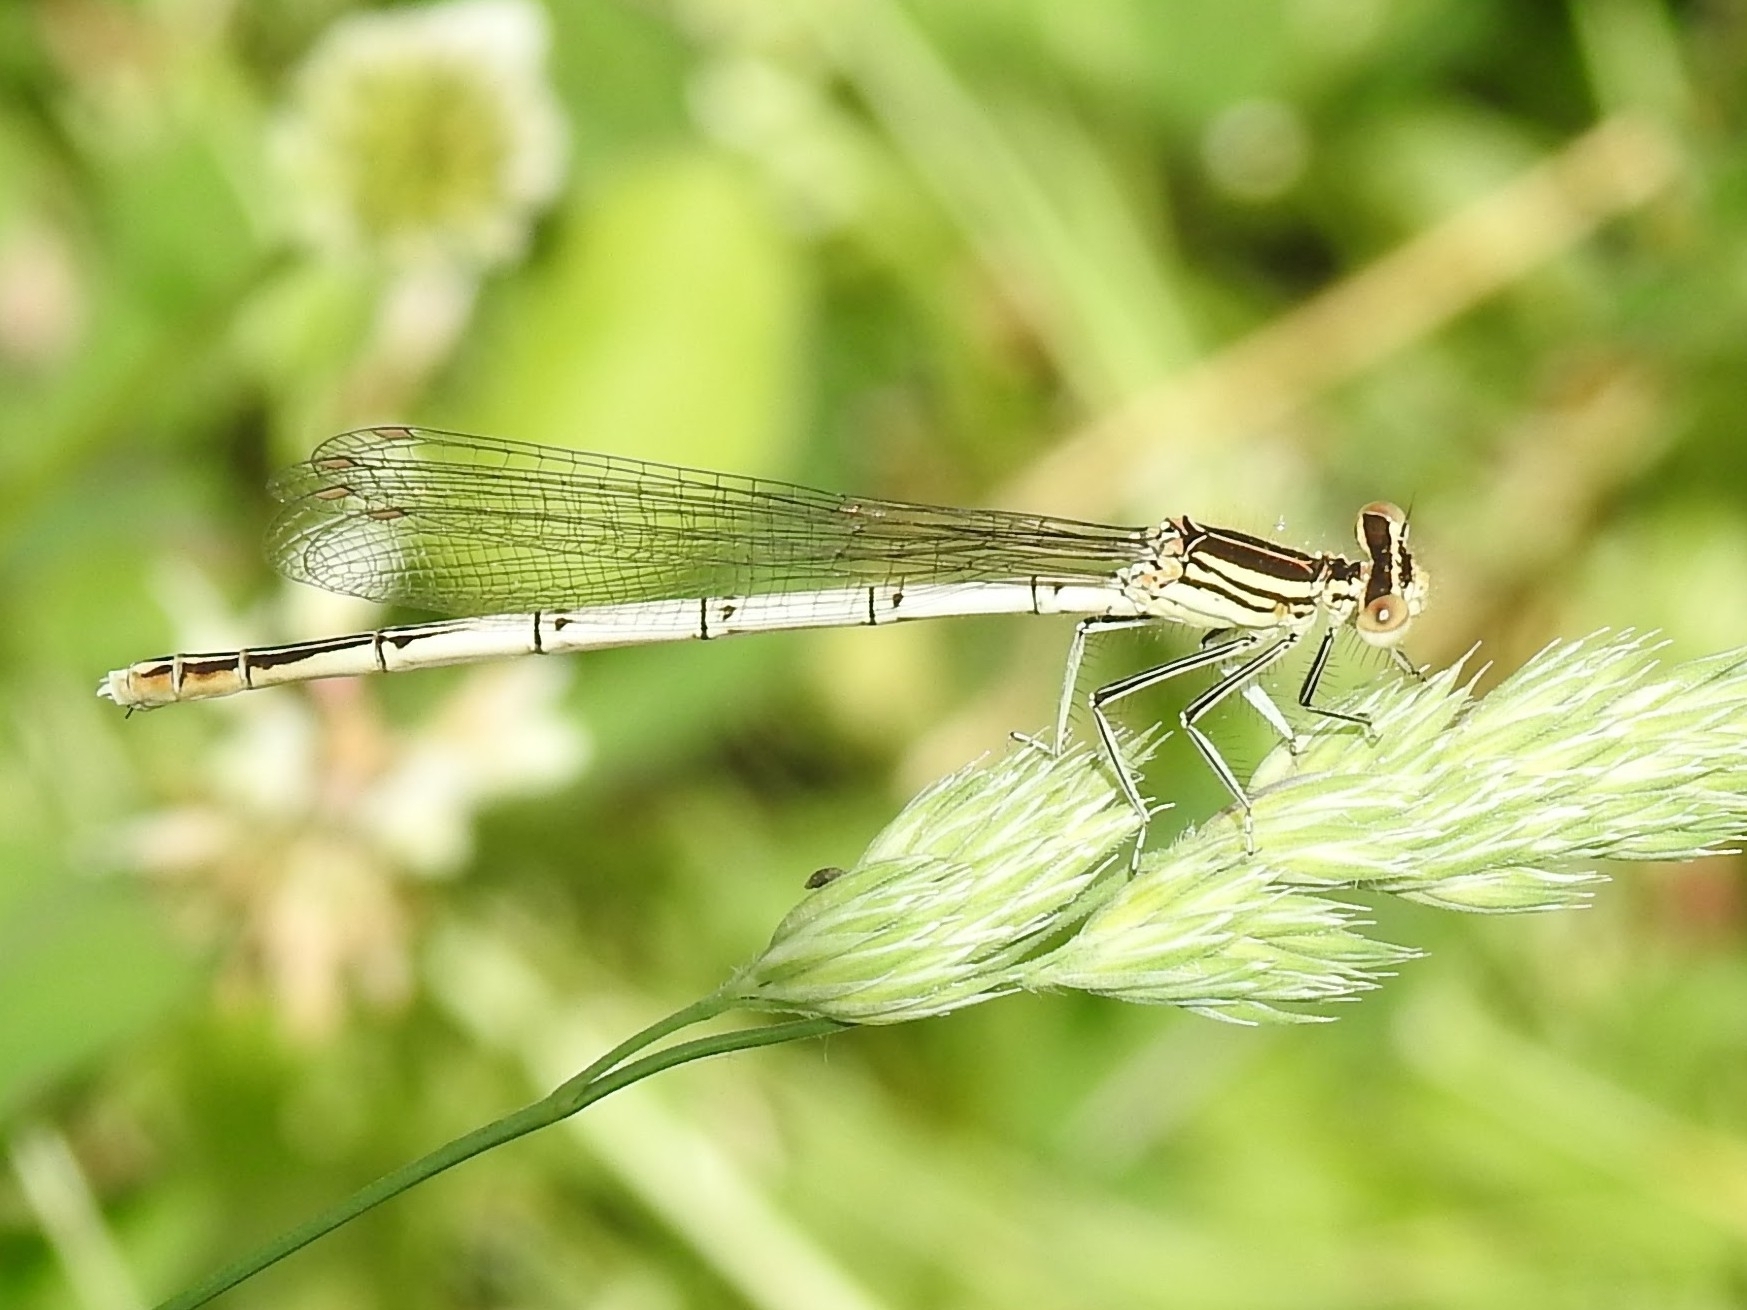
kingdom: Animalia
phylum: Arthropoda
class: Insecta
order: Odonata
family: Platycnemididae
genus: Platycnemis
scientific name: Platycnemis pennipes
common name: White-legged damselfly
